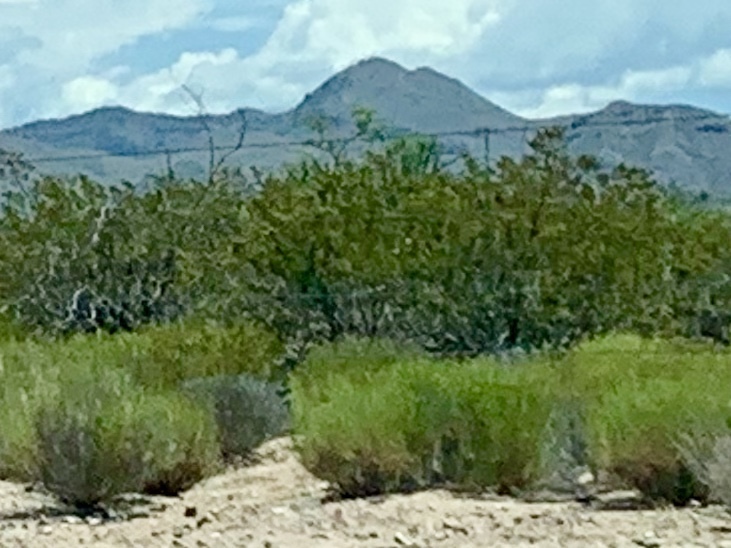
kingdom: Plantae
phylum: Tracheophyta
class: Magnoliopsida
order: Zygophyllales
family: Zygophyllaceae
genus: Larrea
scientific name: Larrea tridentata
